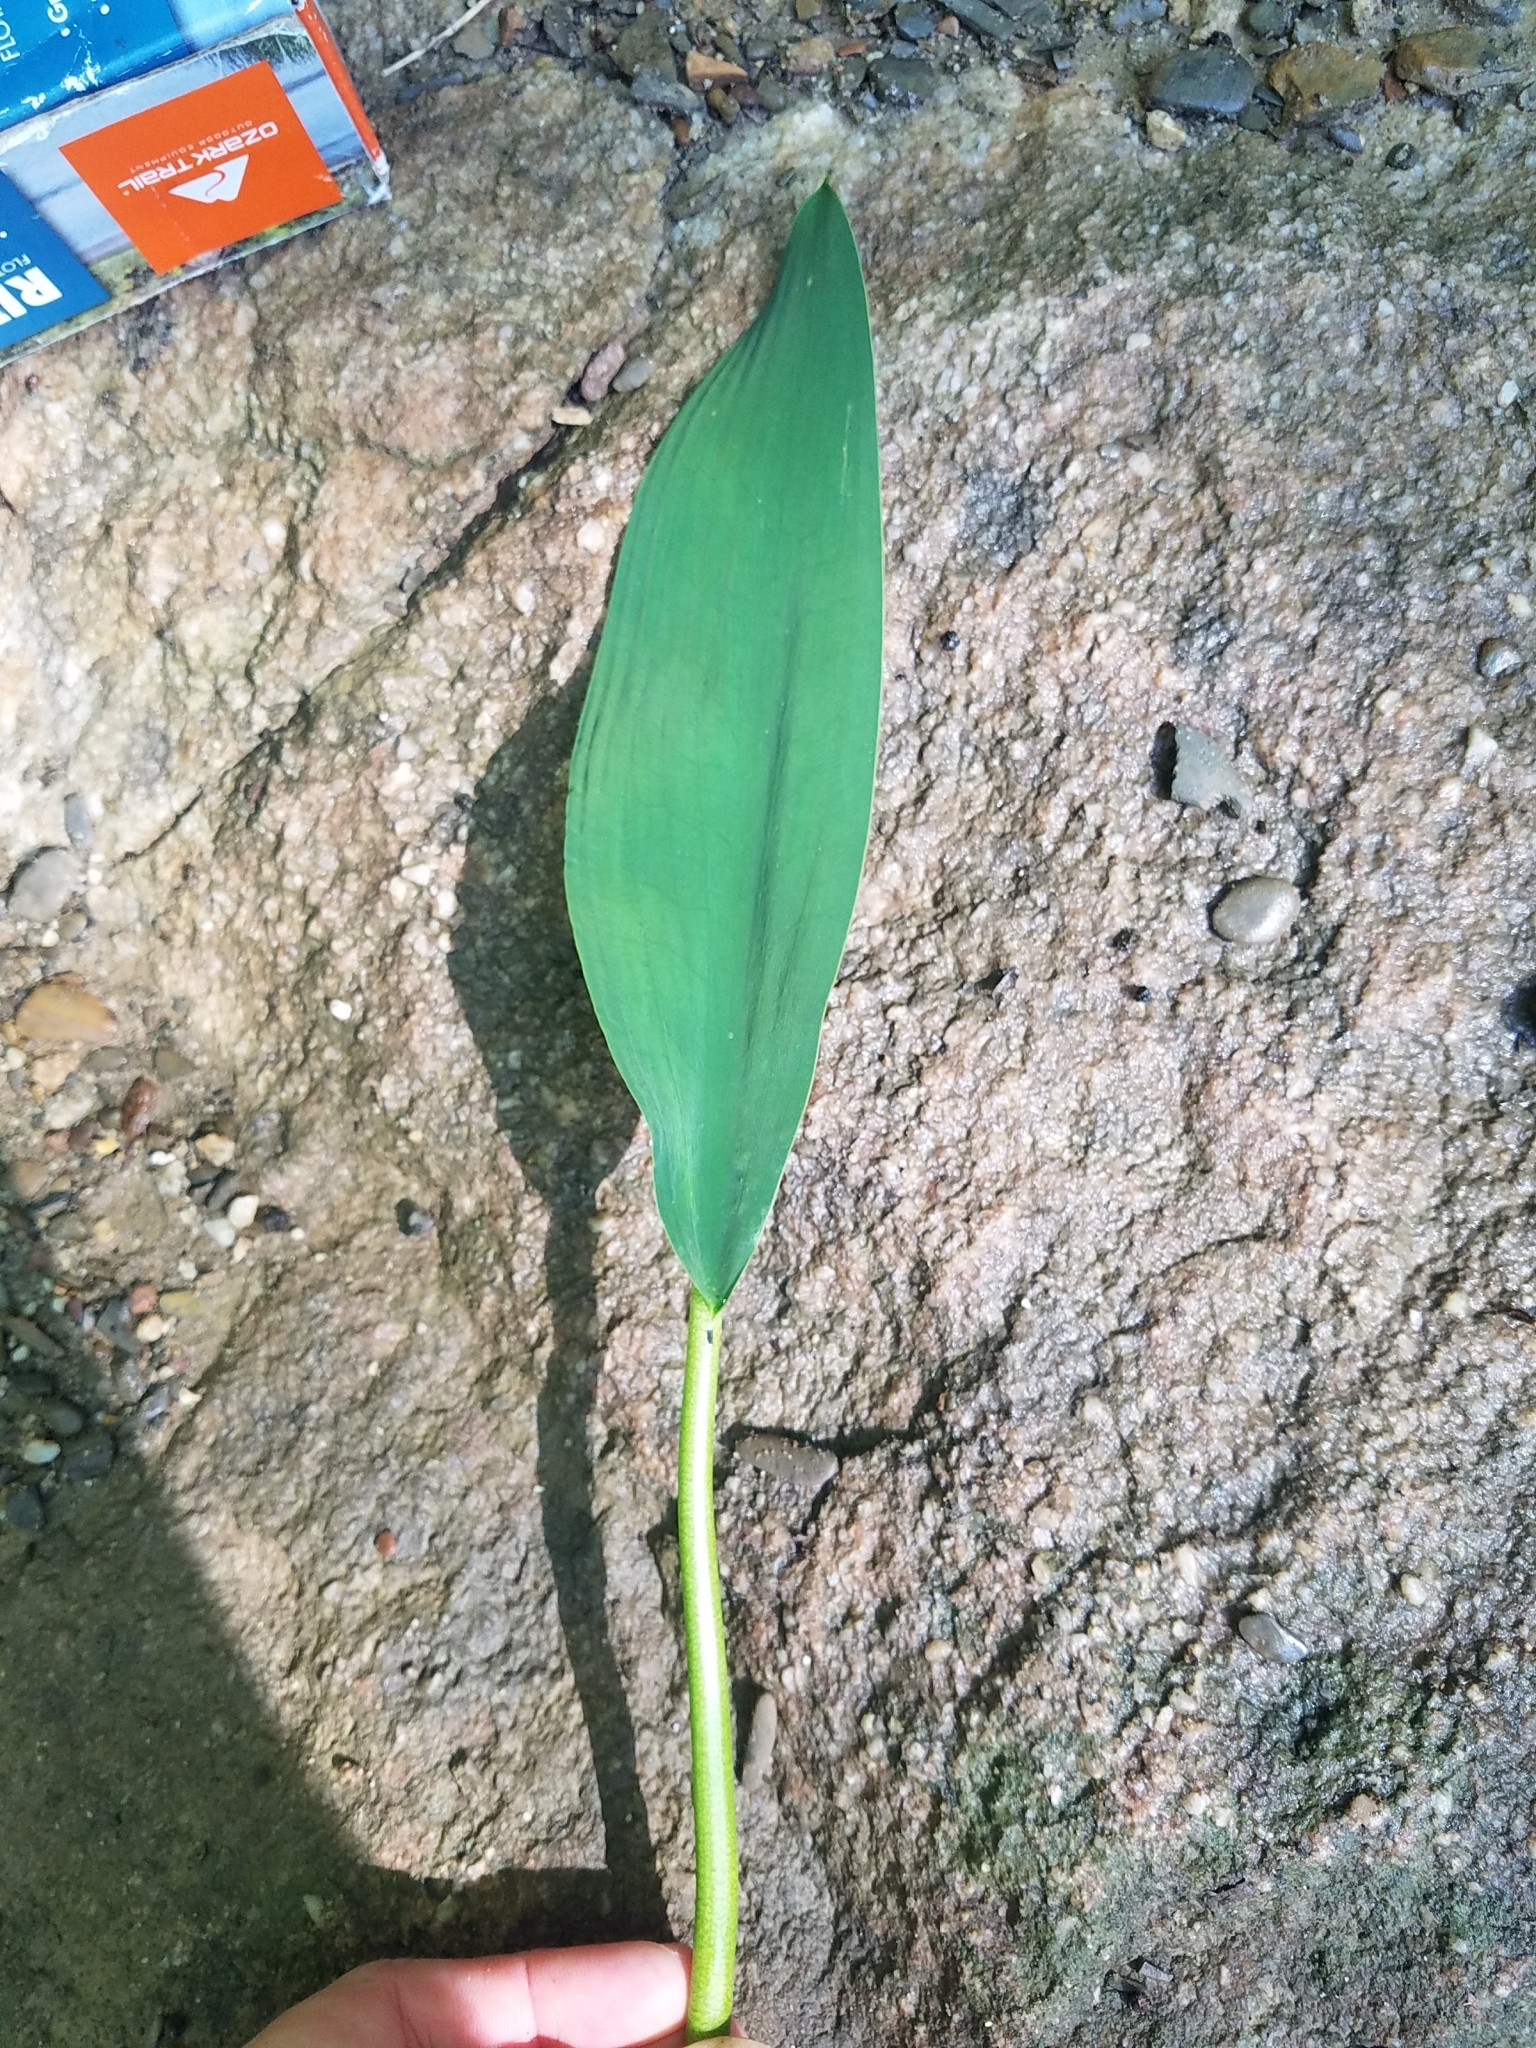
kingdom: Plantae
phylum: Tracheophyta
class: Liliopsida
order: Alismatales
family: Araceae
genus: Orontium
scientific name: Orontium aquaticum
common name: Golden-club
